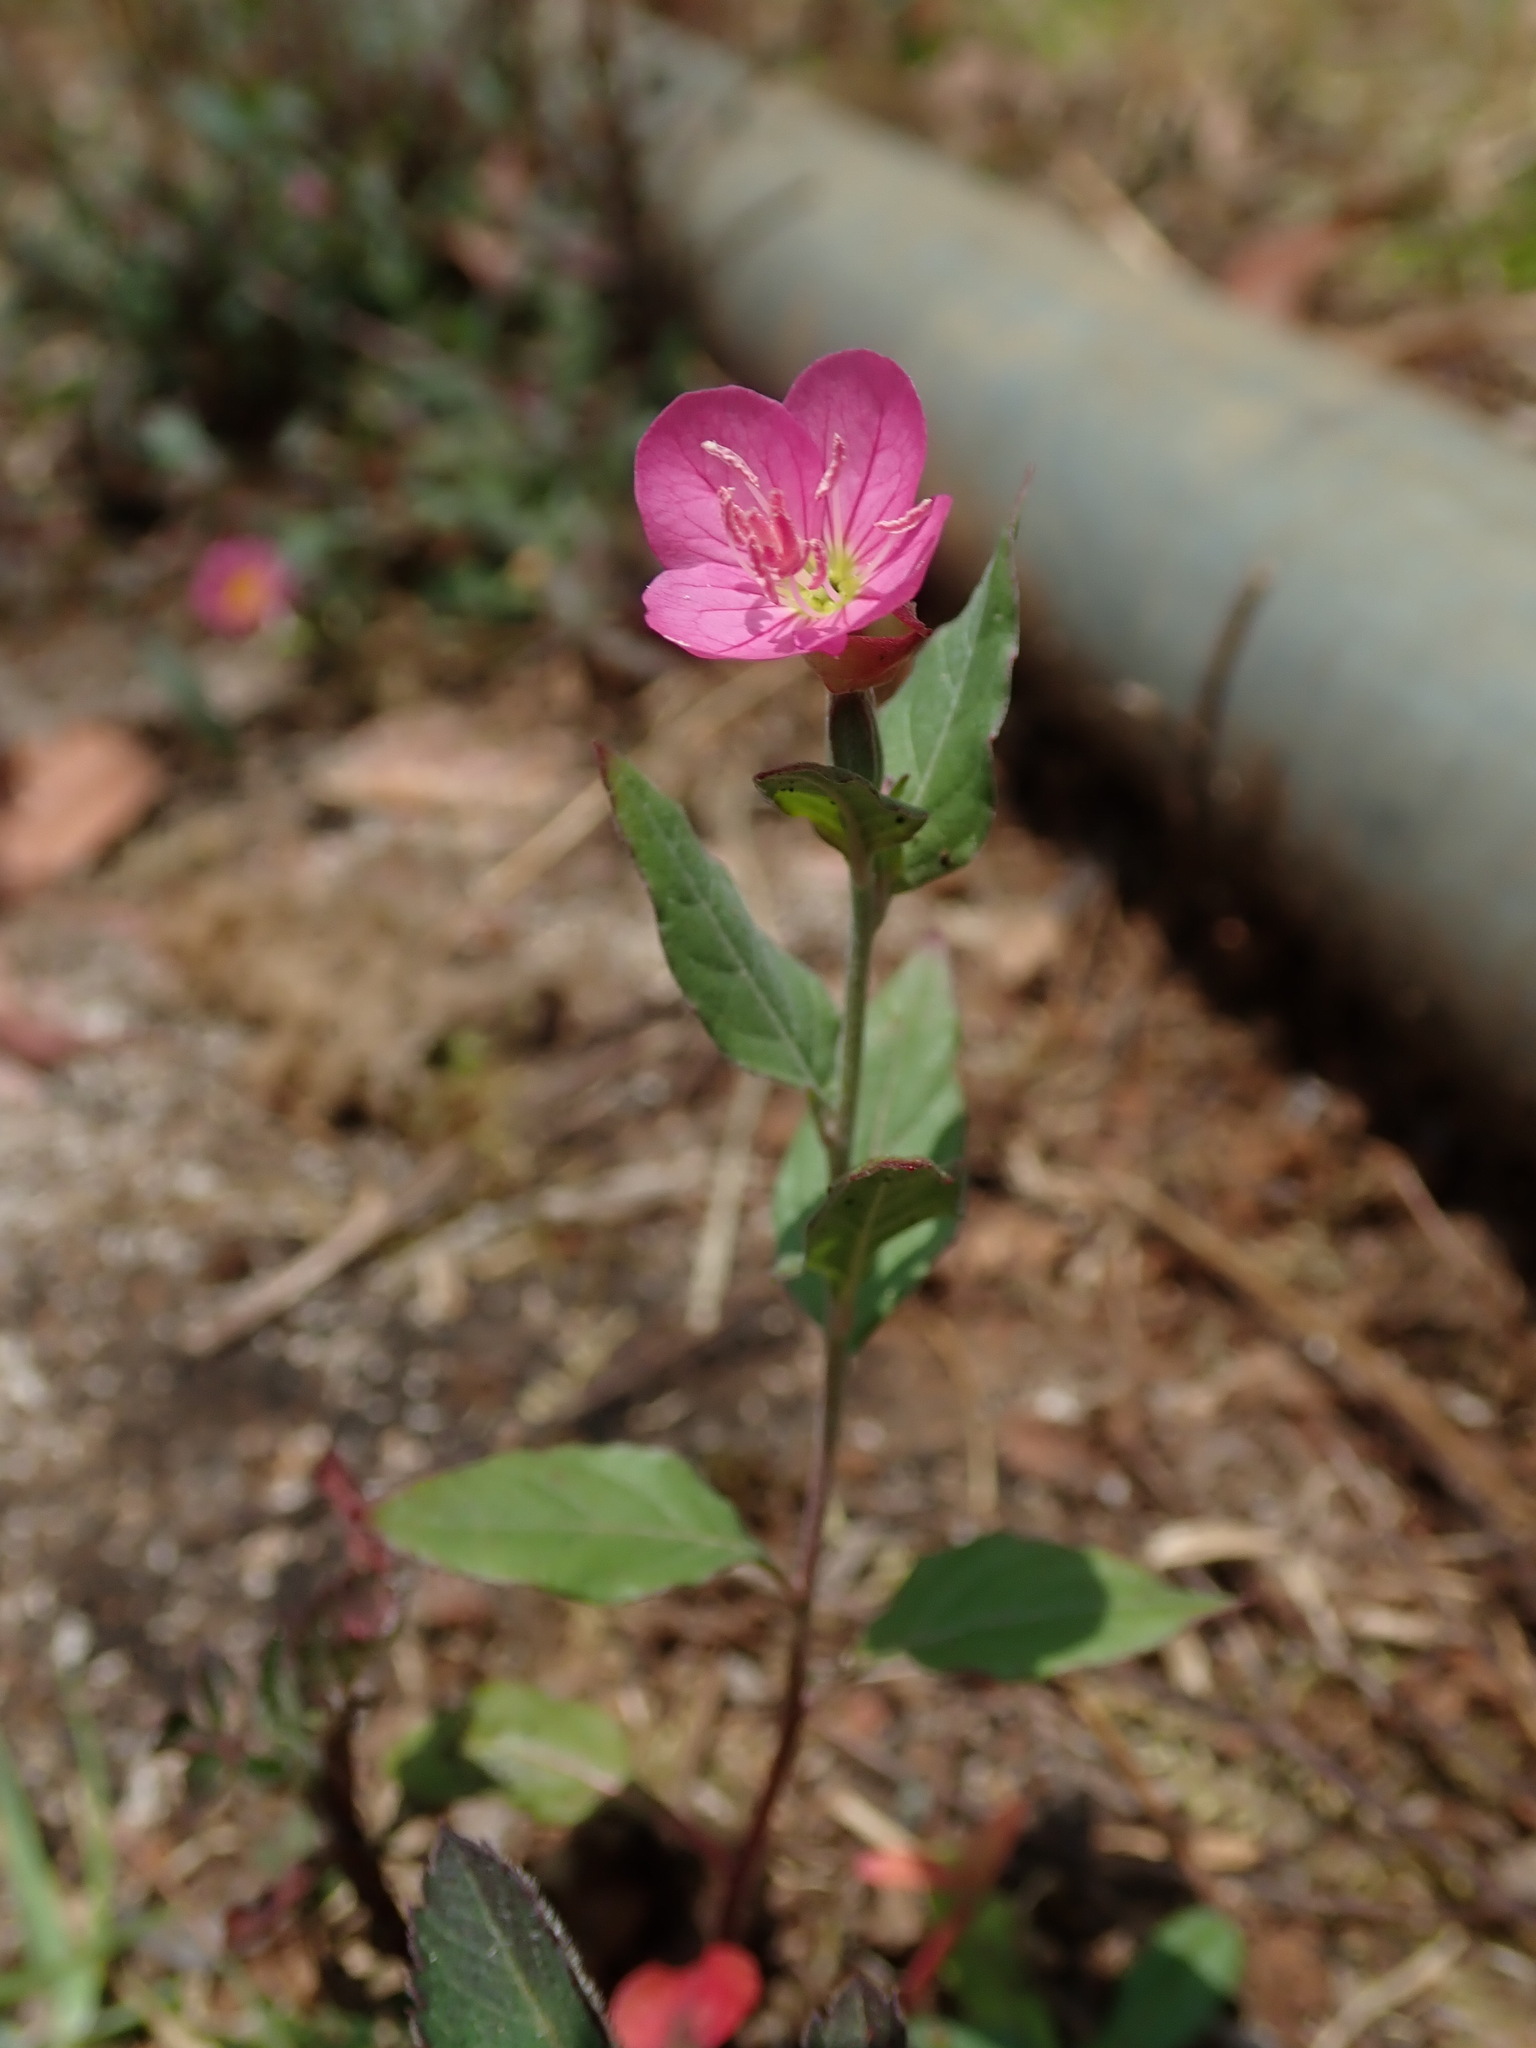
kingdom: Plantae
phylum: Tracheophyta
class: Magnoliopsida
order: Myrtales
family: Onagraceae
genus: Oenothera
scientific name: Oenothera rosea
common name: Rosy evening-primrose
